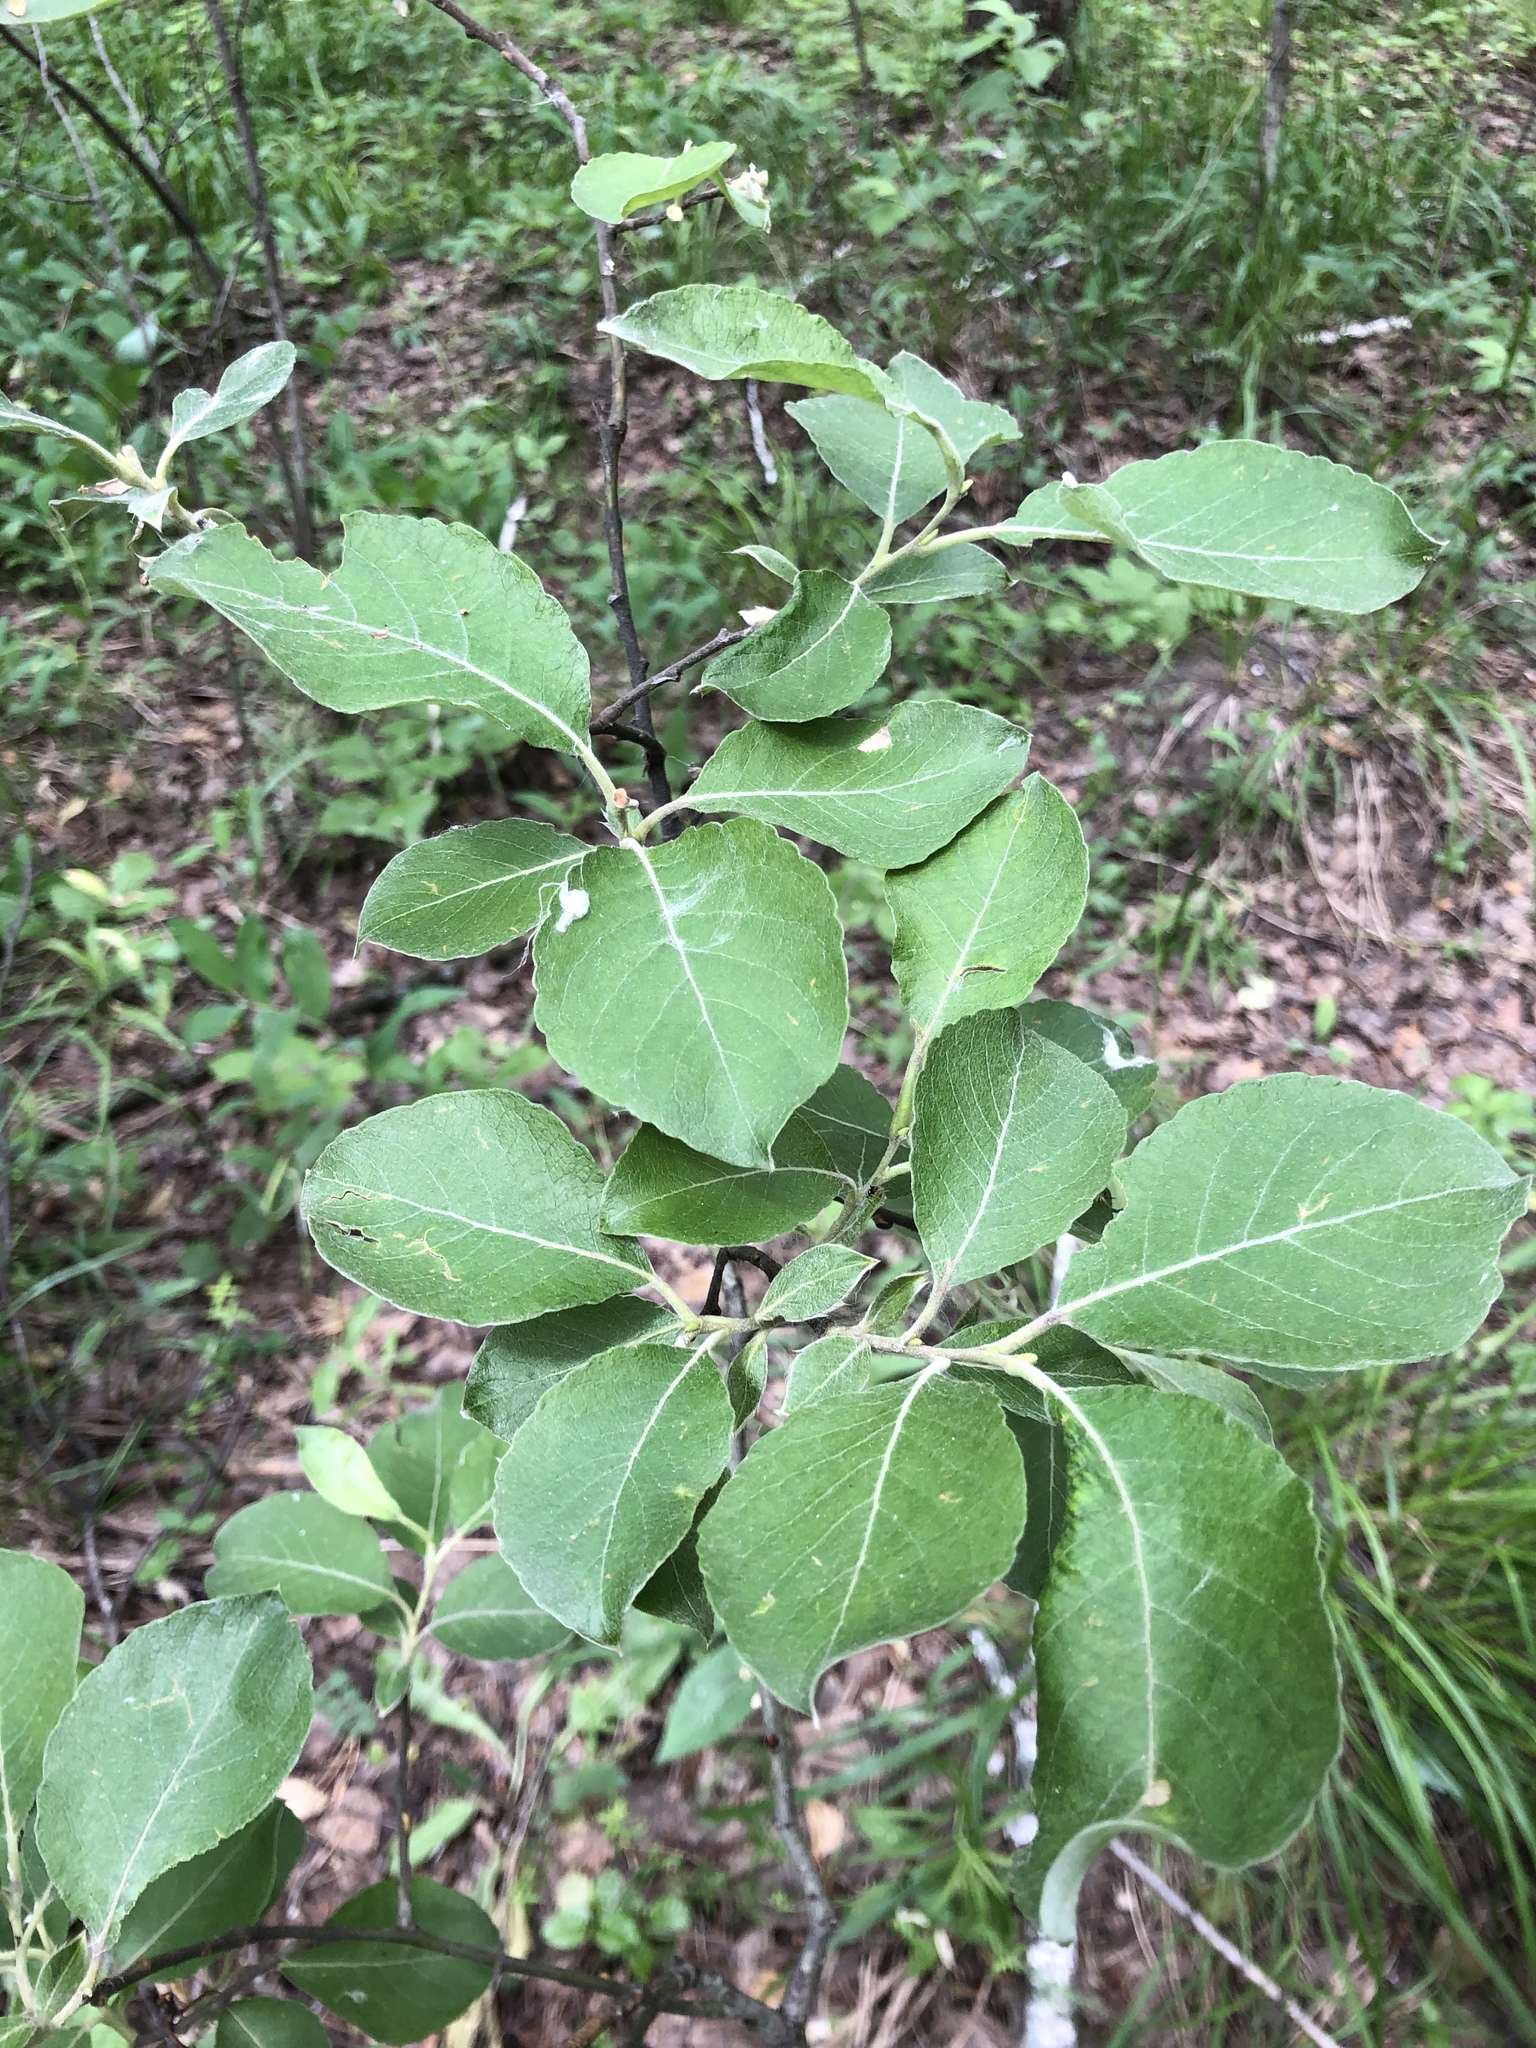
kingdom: Plantae
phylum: Tracheophyta
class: Magnoliopsida
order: Malpighiales
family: Salicaceae
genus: Salix
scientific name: Salix caprea
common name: Goat willow
